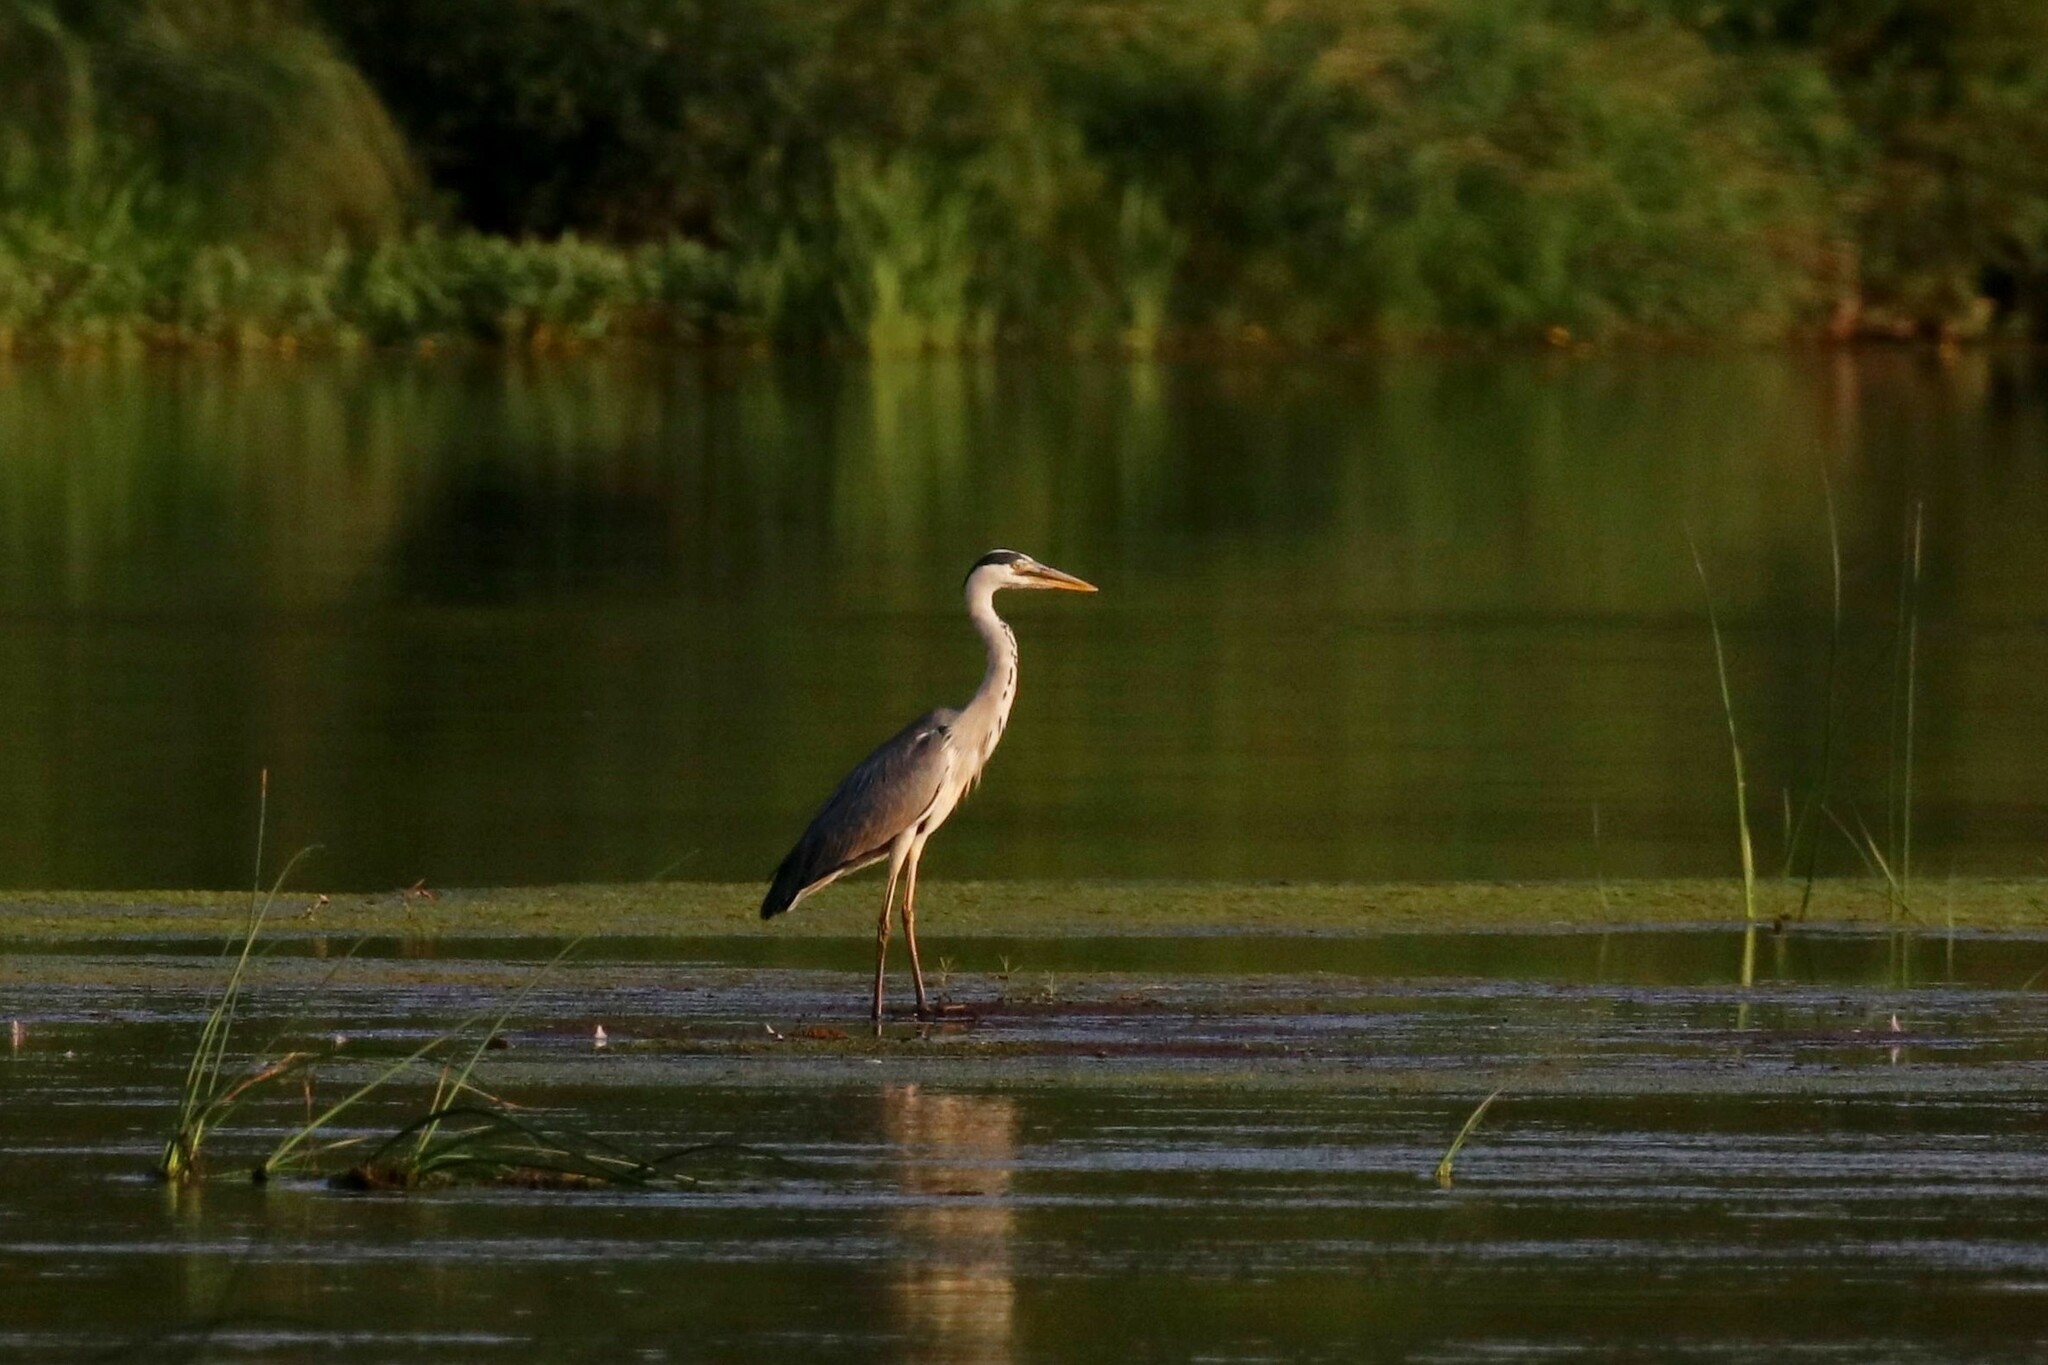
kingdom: Animalia
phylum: Chordata
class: Aves
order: Pelecaniformes
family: Ardeidae
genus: Ardea
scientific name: Ardea cinerea
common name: Grey heron
